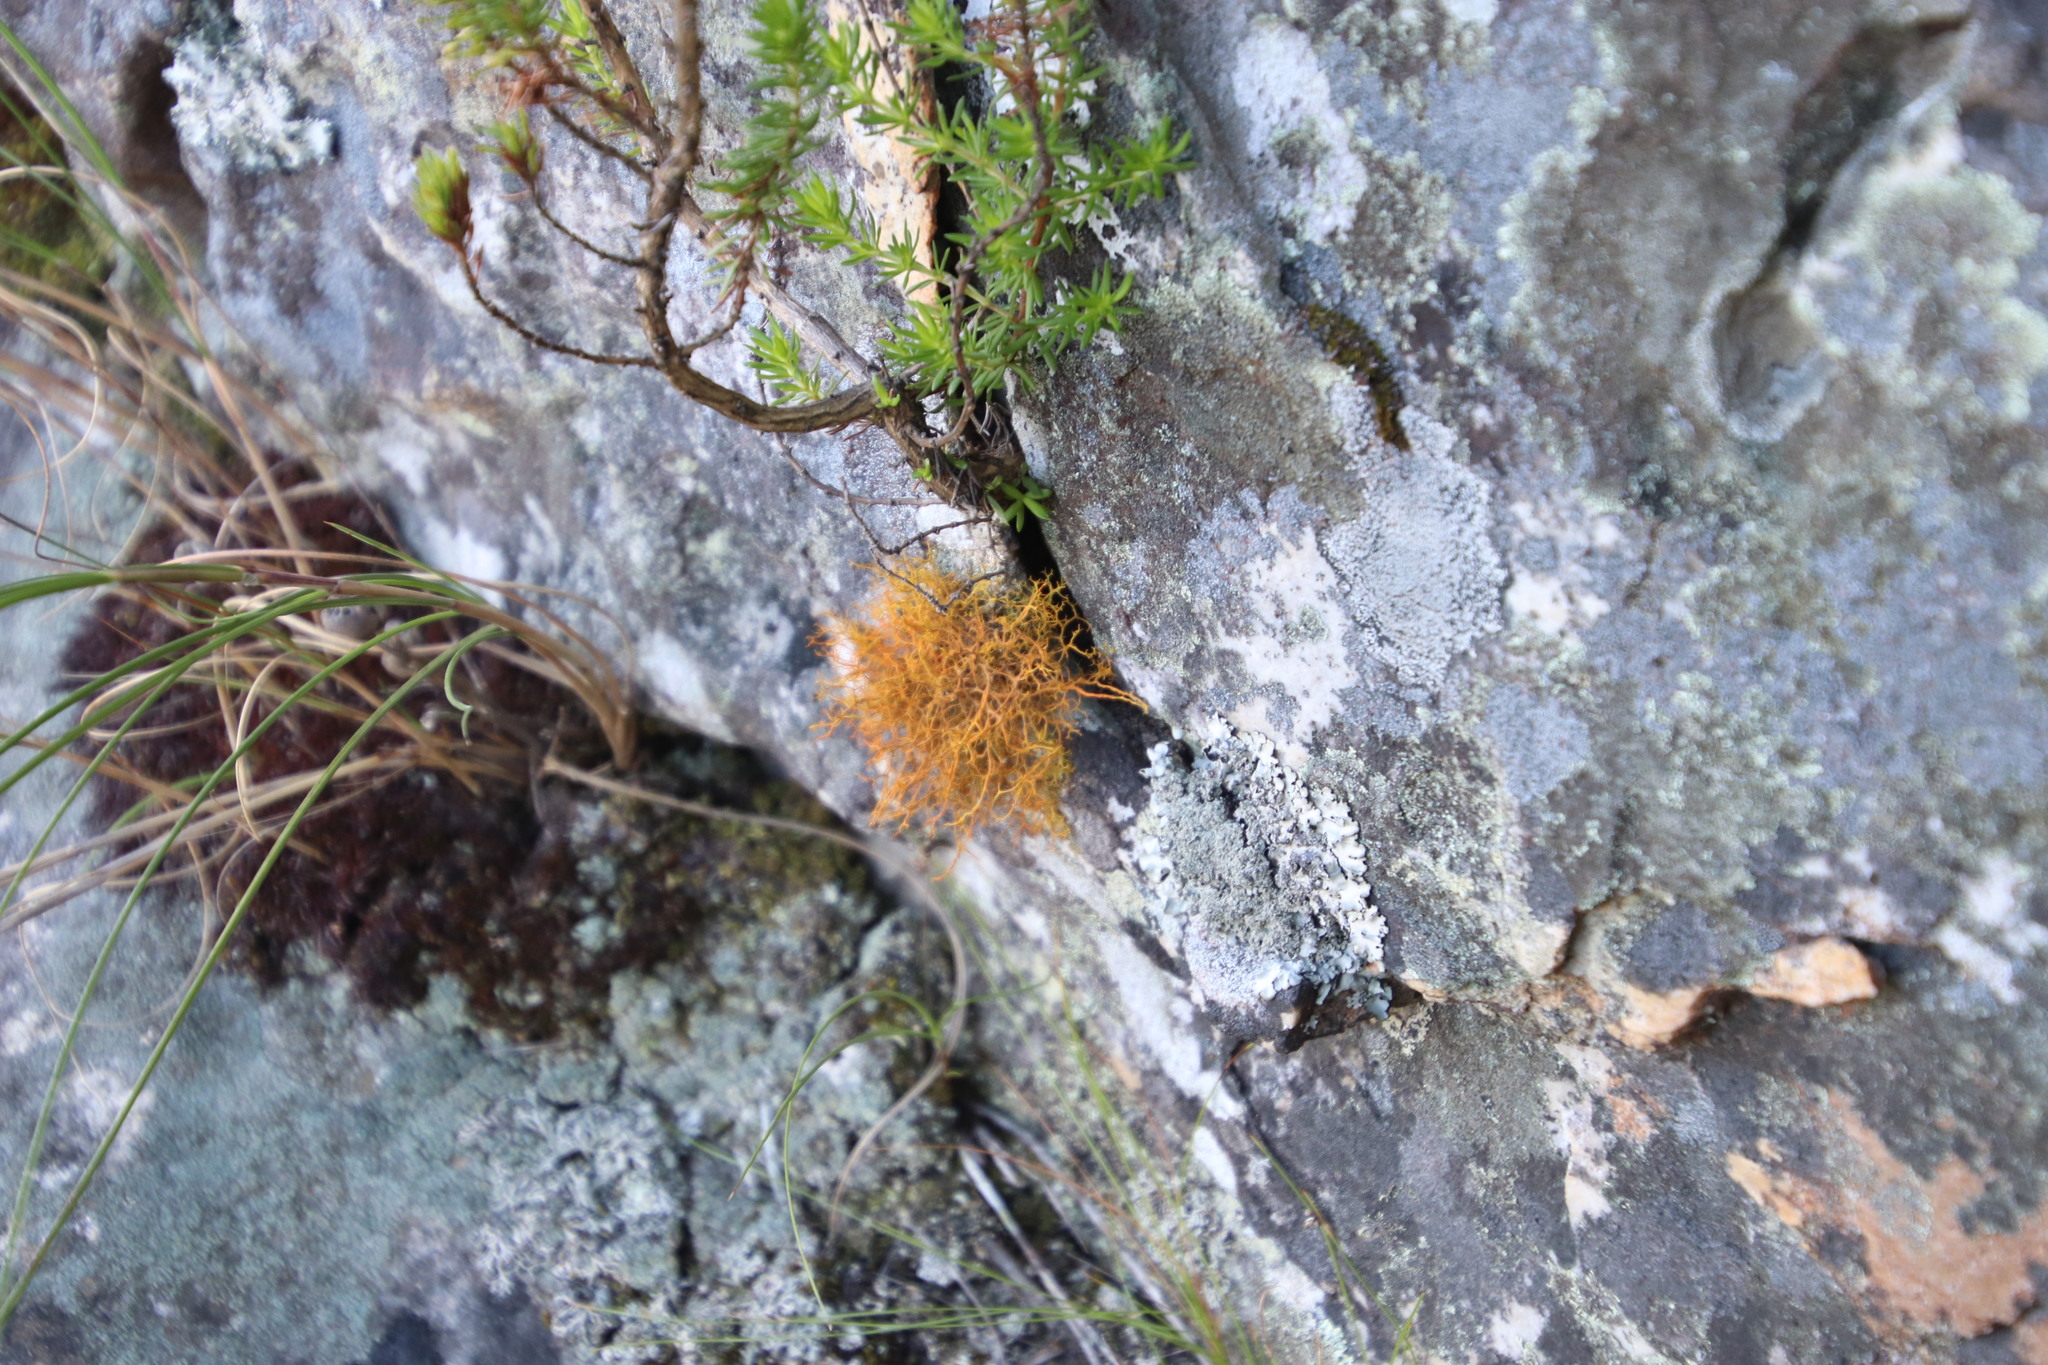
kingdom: Fungi
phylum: Ascomycota
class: Lecanoromycetes
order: Teloschistales
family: Teloschistaceae
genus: Teloschistes
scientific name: Teloschistes flavicans
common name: Golden hair-lichen
